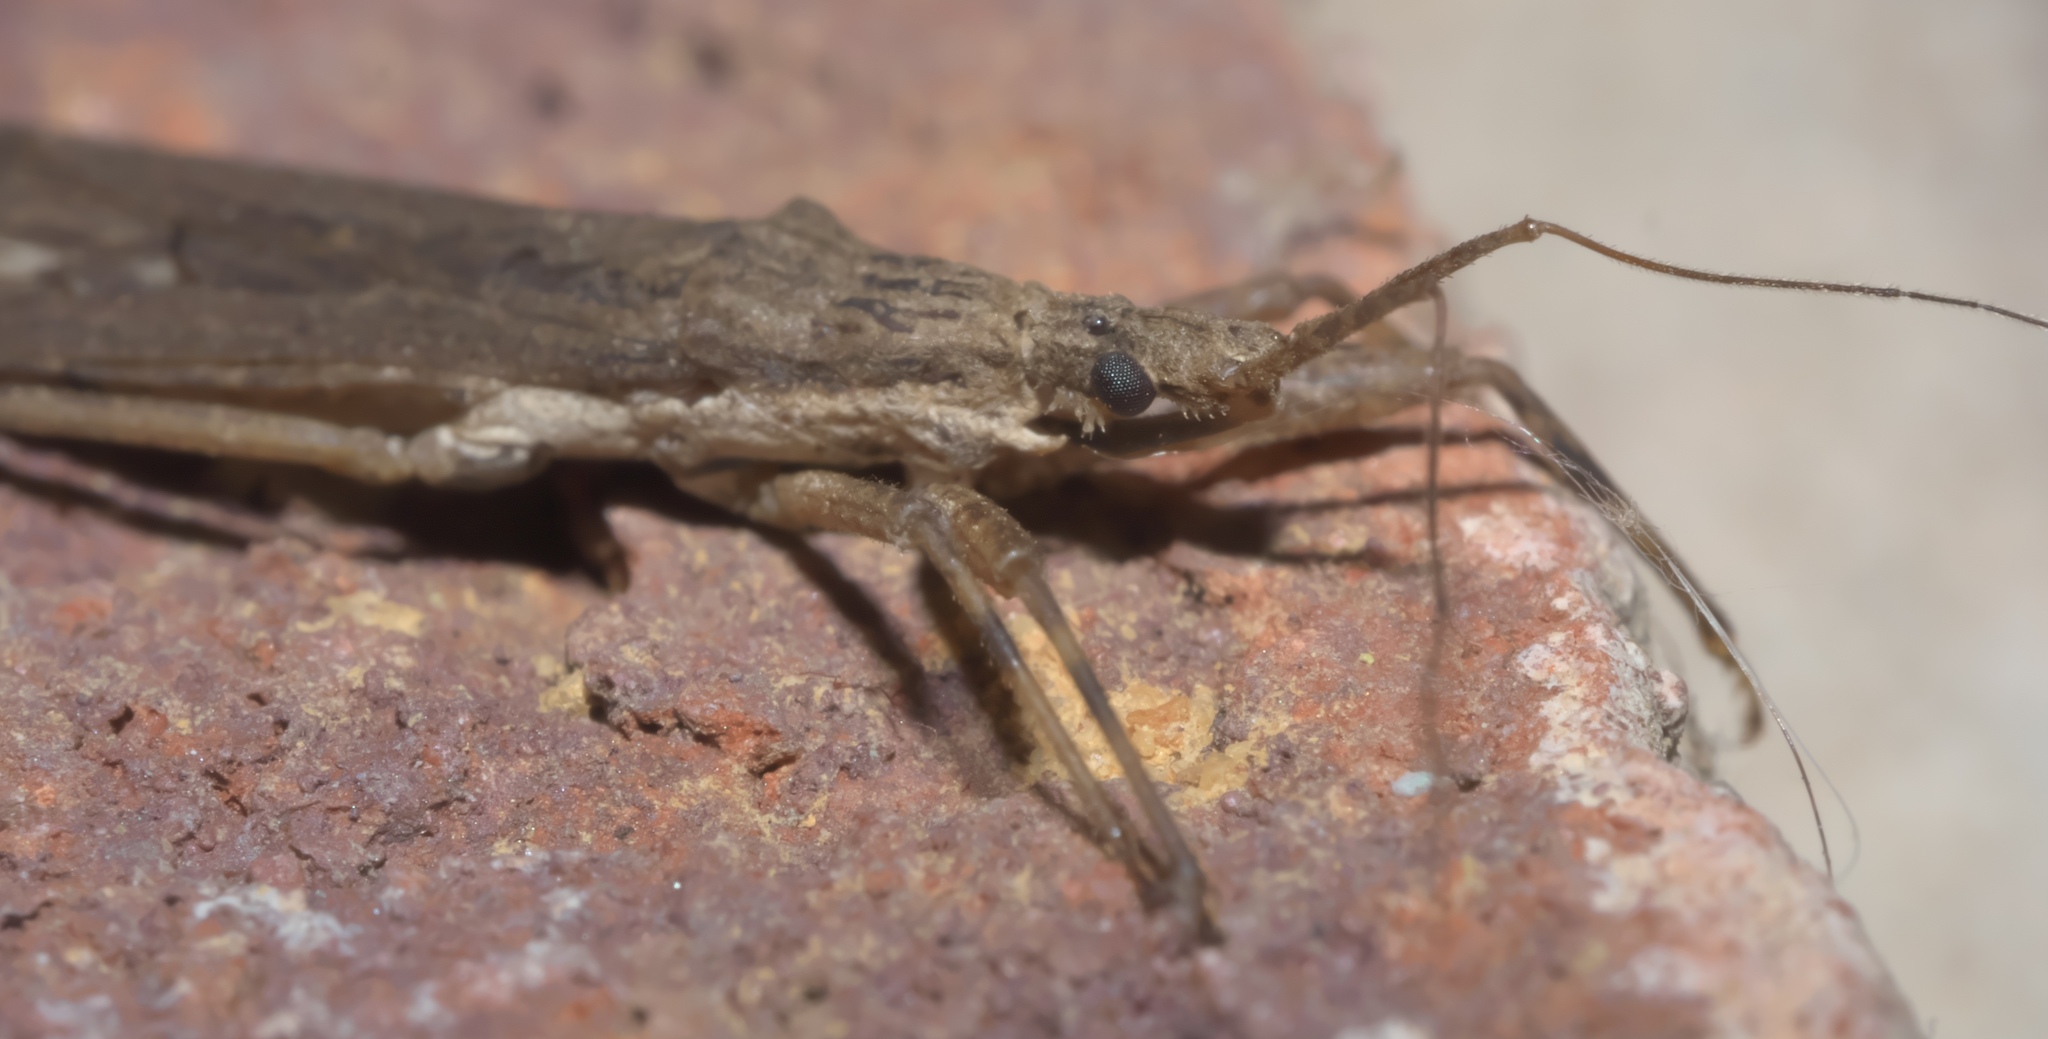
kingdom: Animalia
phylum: Arthropoda
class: Insecta
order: Hemiptera
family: Reduviidae
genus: Pygolampis
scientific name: Pygolampis pectoralis
